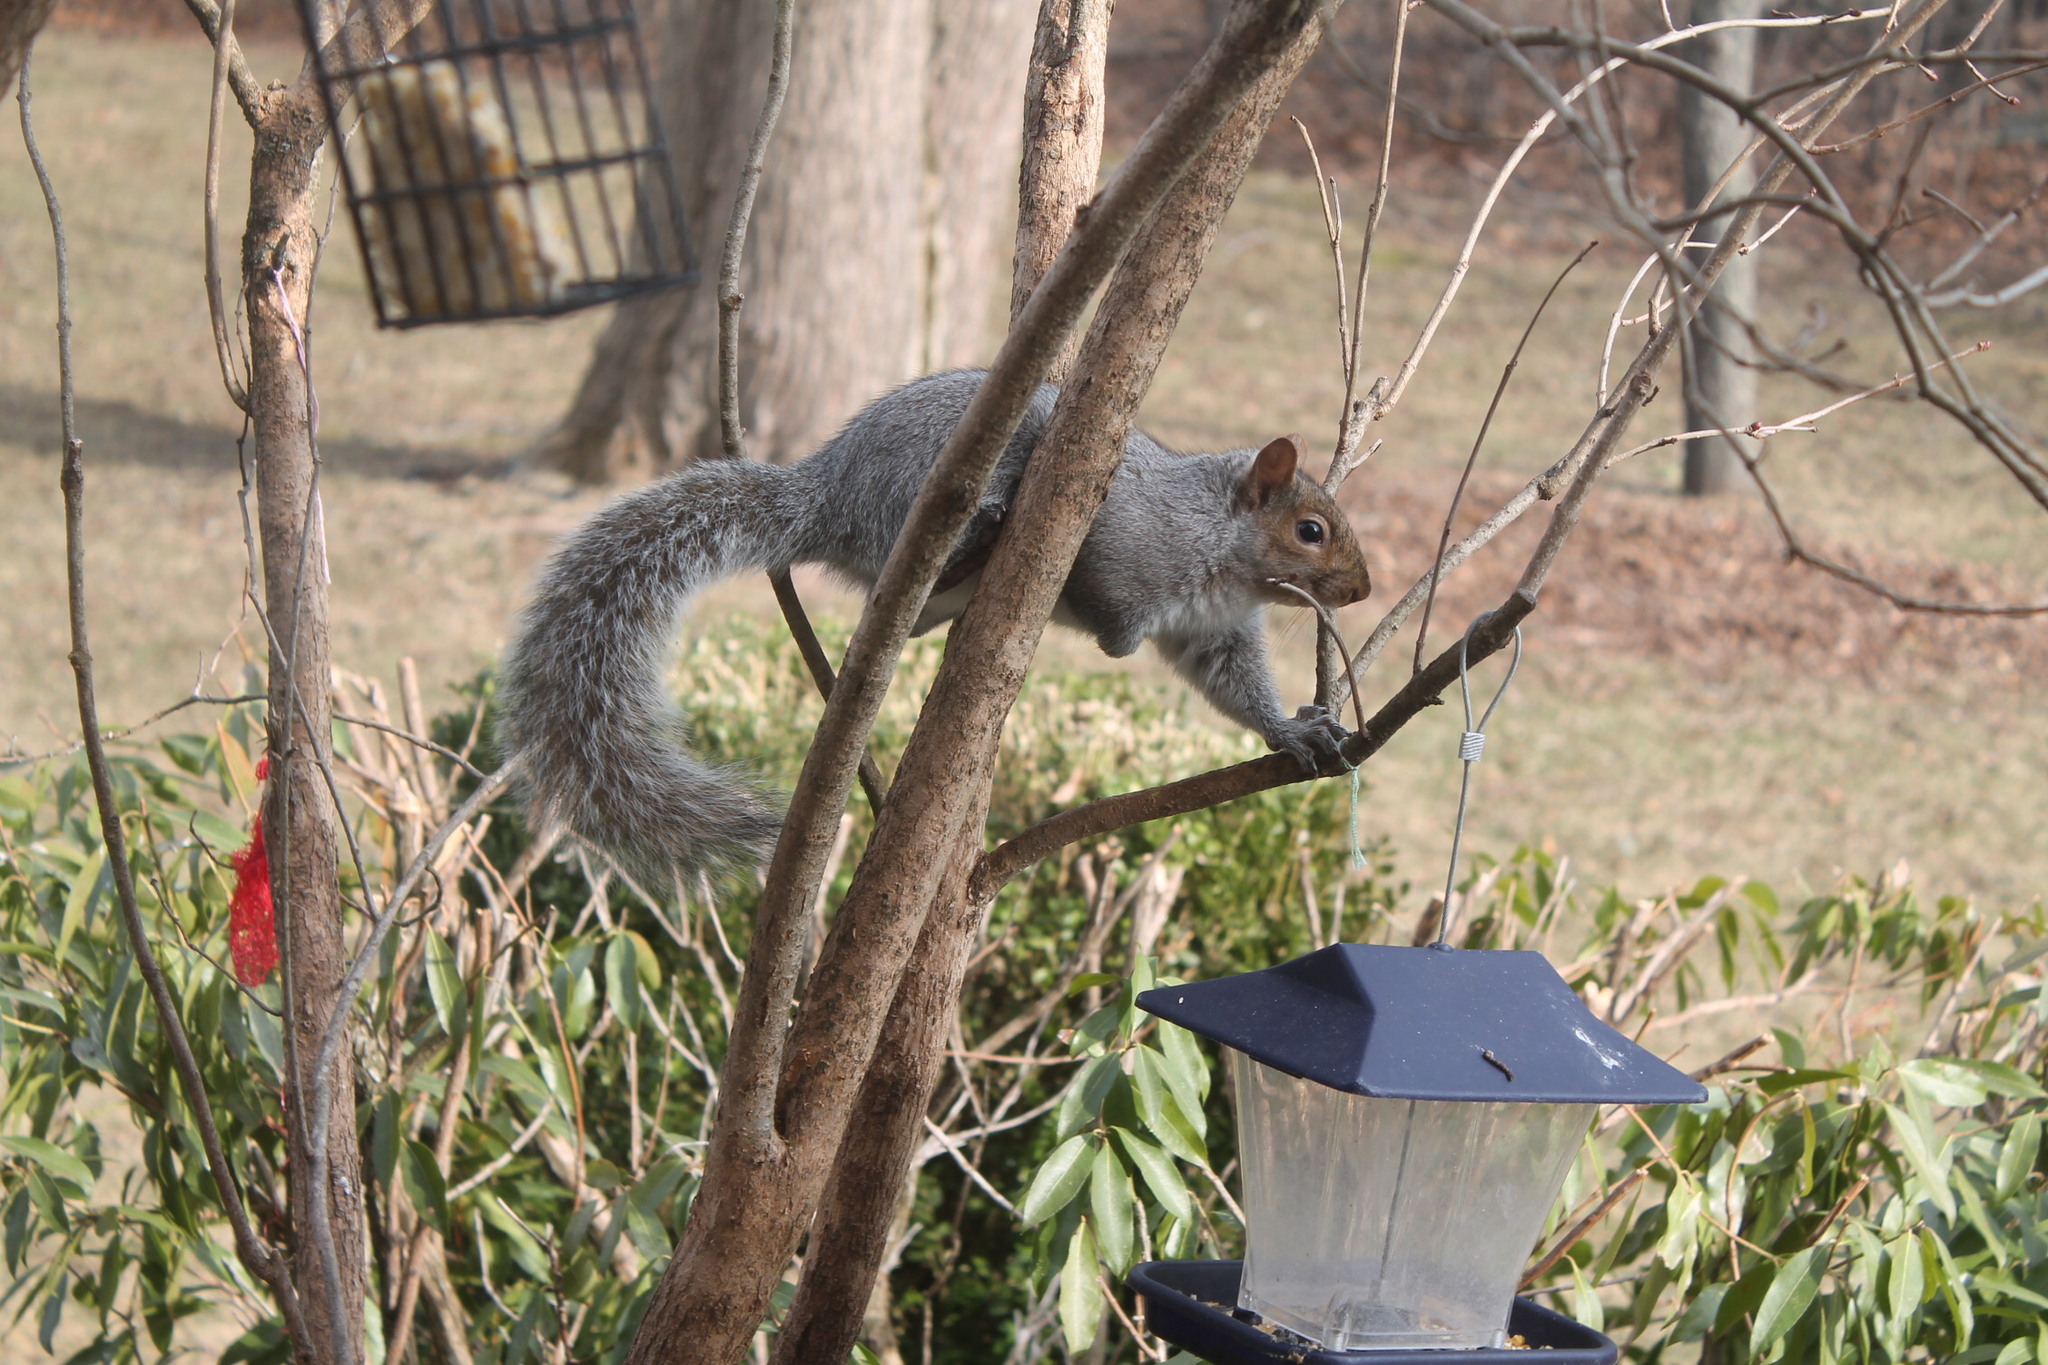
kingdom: Animalia
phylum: Chordata
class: Mammalia
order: Rodentia
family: Sciuridae
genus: Sciurus
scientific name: Sciurus carolinensis
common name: Eastern gray squirrel
